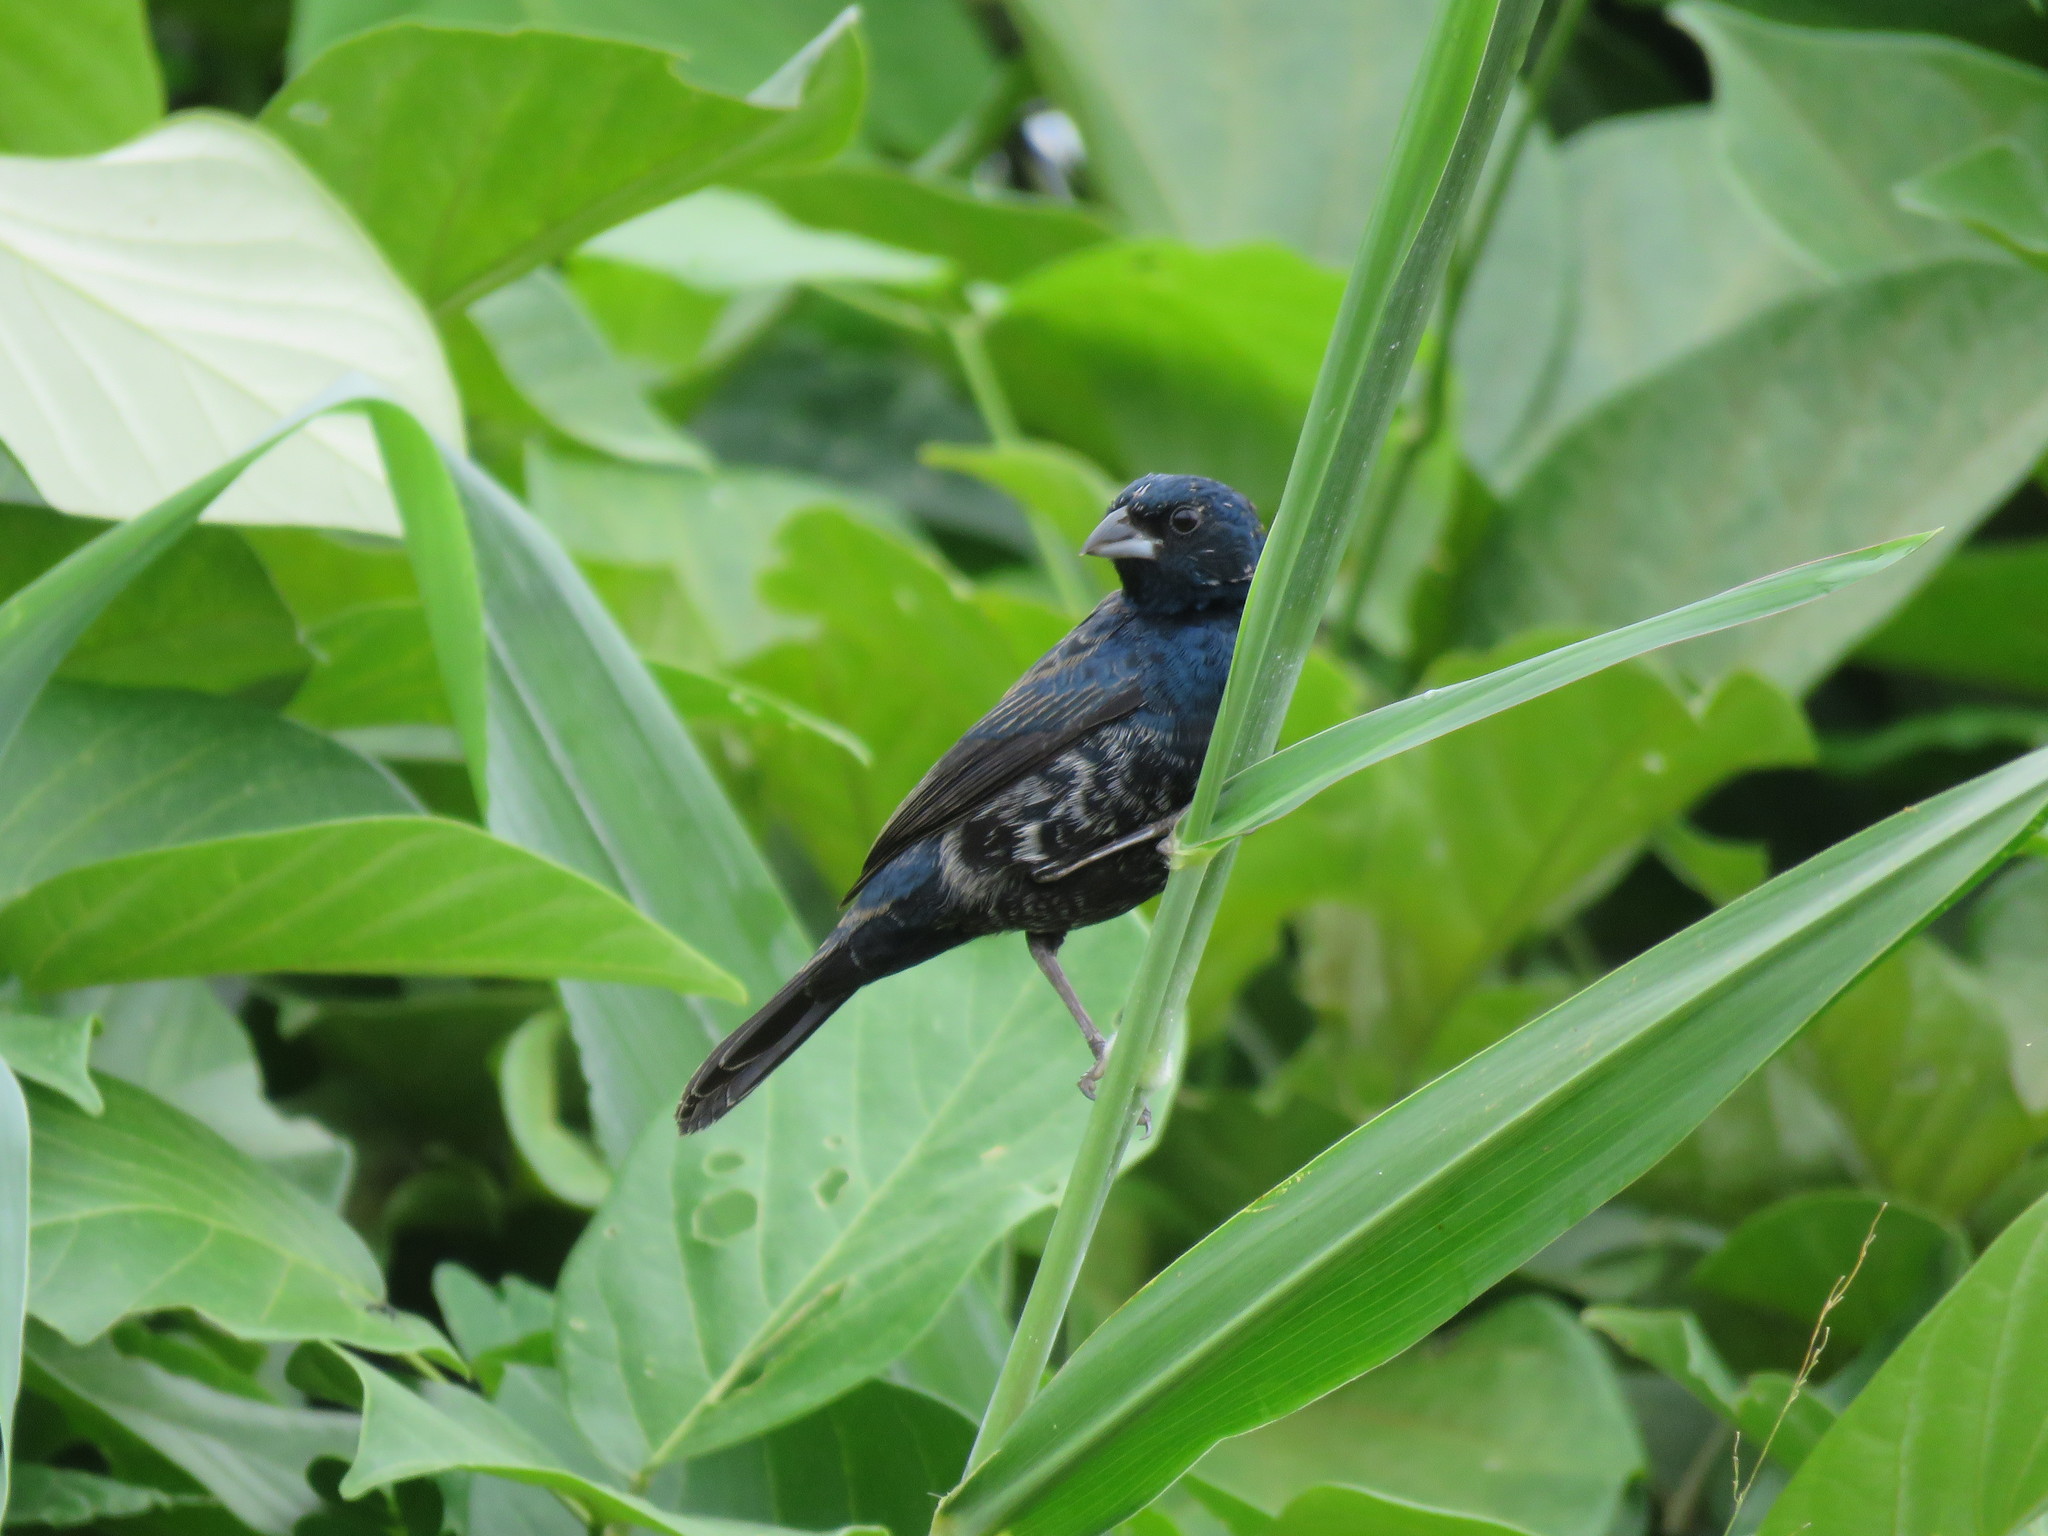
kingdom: Animalia
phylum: Chordata
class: Aves
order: Passeriformes
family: Thraupidae
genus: Volatinia
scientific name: Volatinia jacarina
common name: Blue-black grassquit
